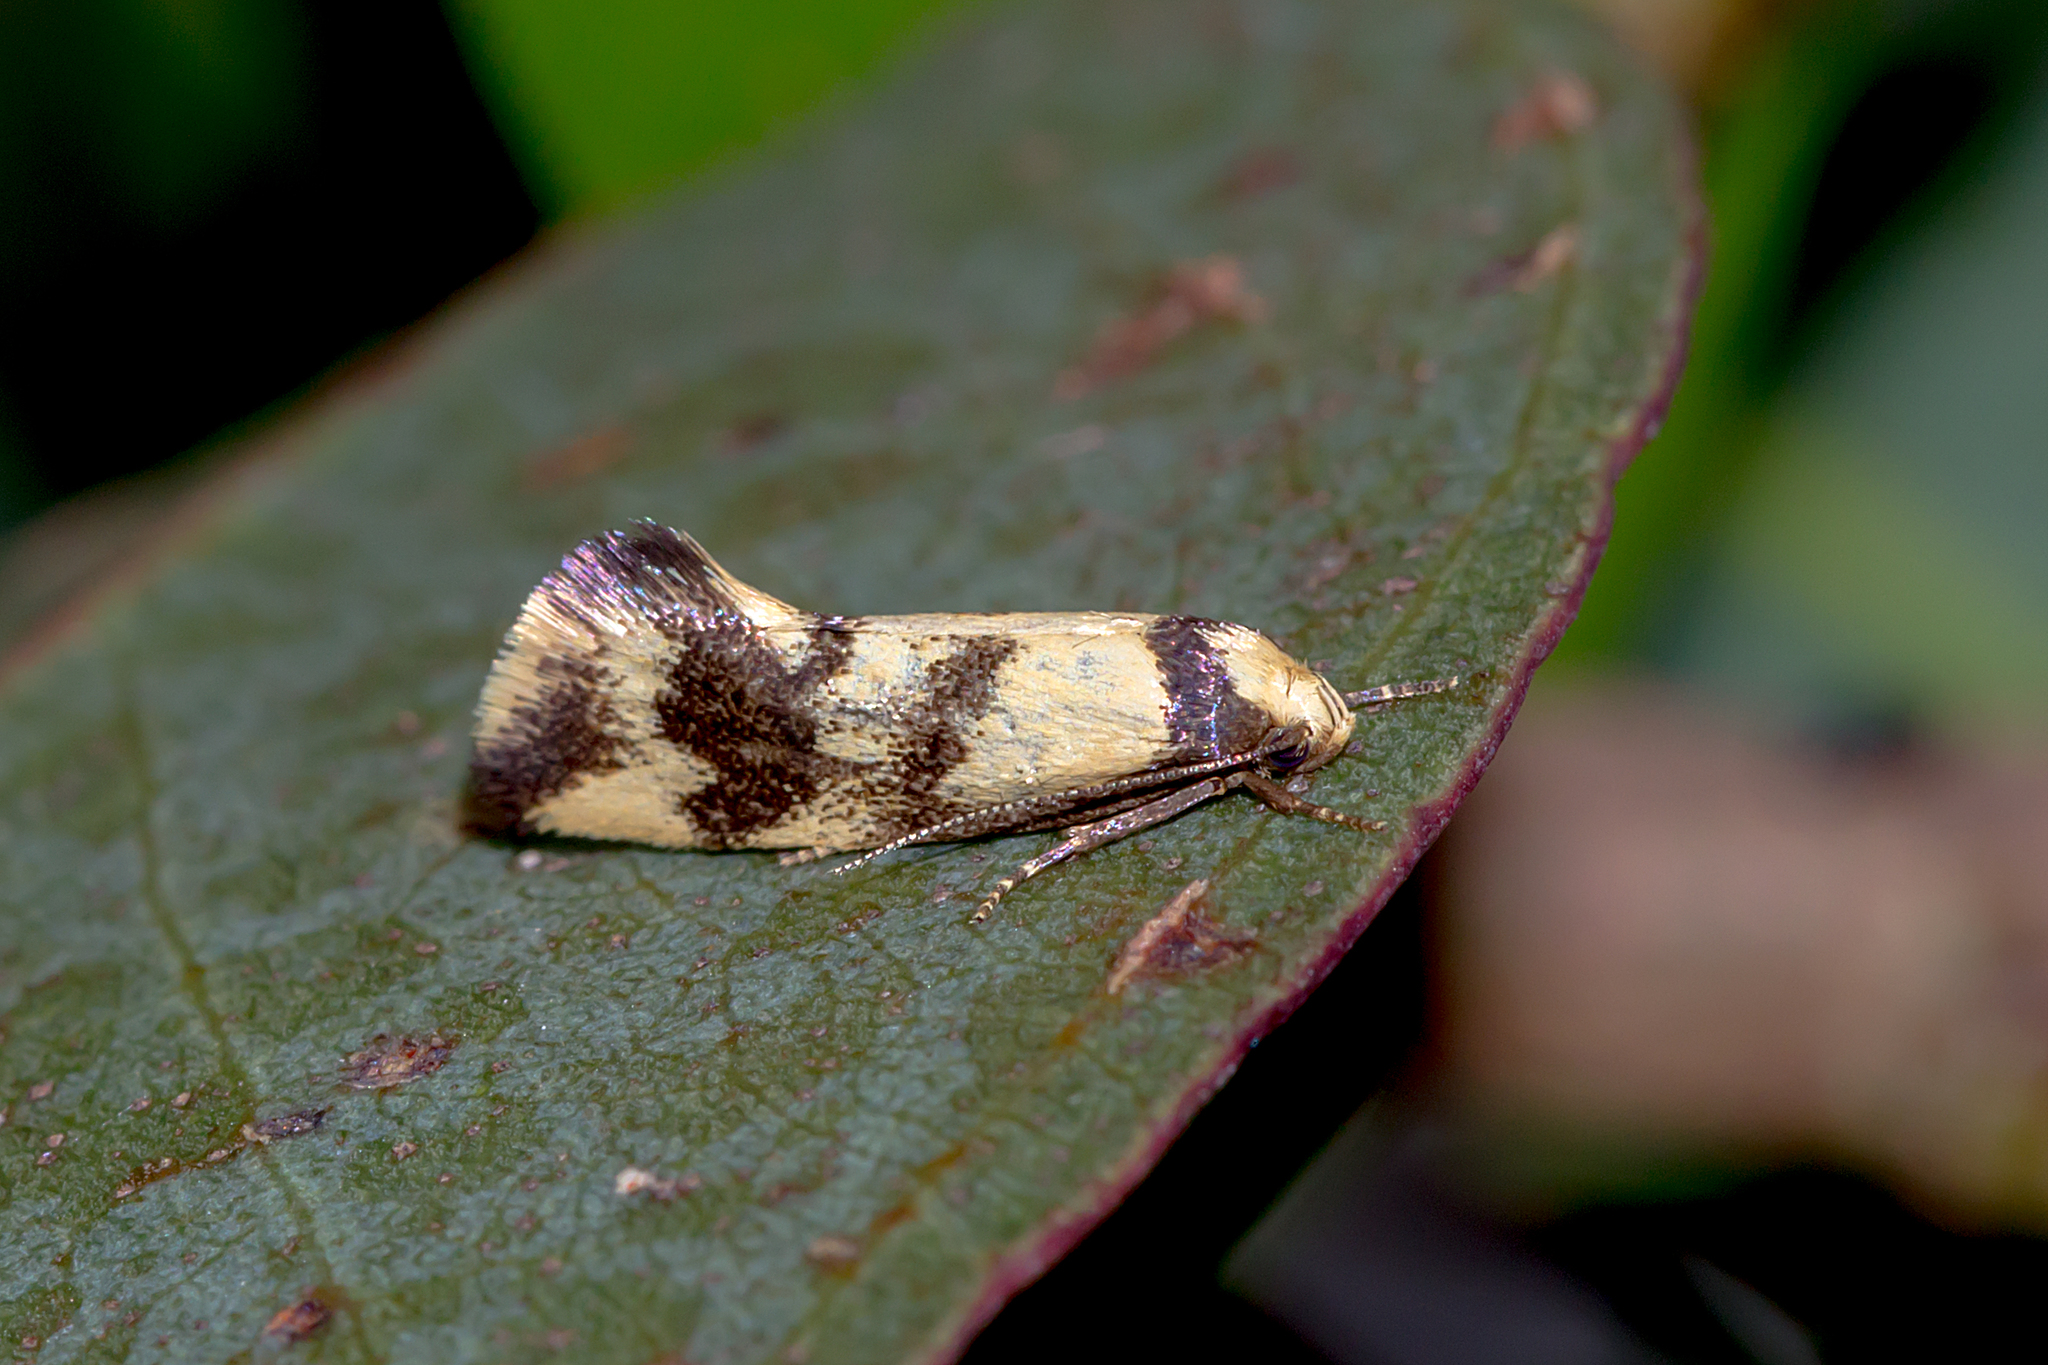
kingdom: Animalia
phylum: Arthropoda
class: Insecta
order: Lepidoptera
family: Oecophoridae
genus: Olbonoma
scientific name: Olbonoma triptycha
